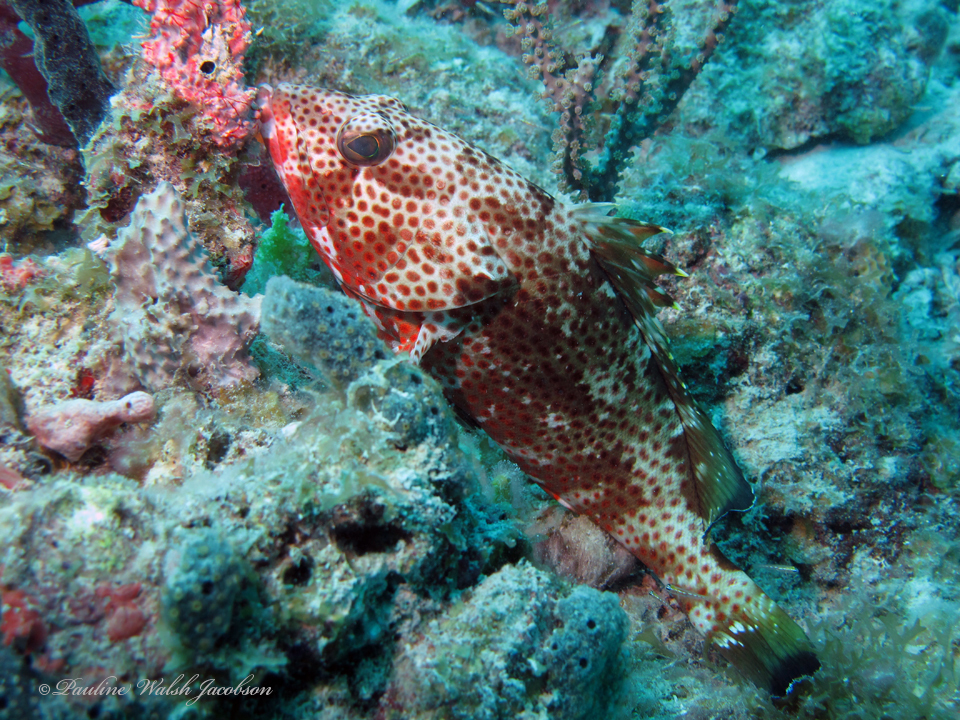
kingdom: Animalia
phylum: Chordata
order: Perciformes
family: Serranidae
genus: Epinephelus
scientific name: Epinephelus guttatus
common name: Red hind
